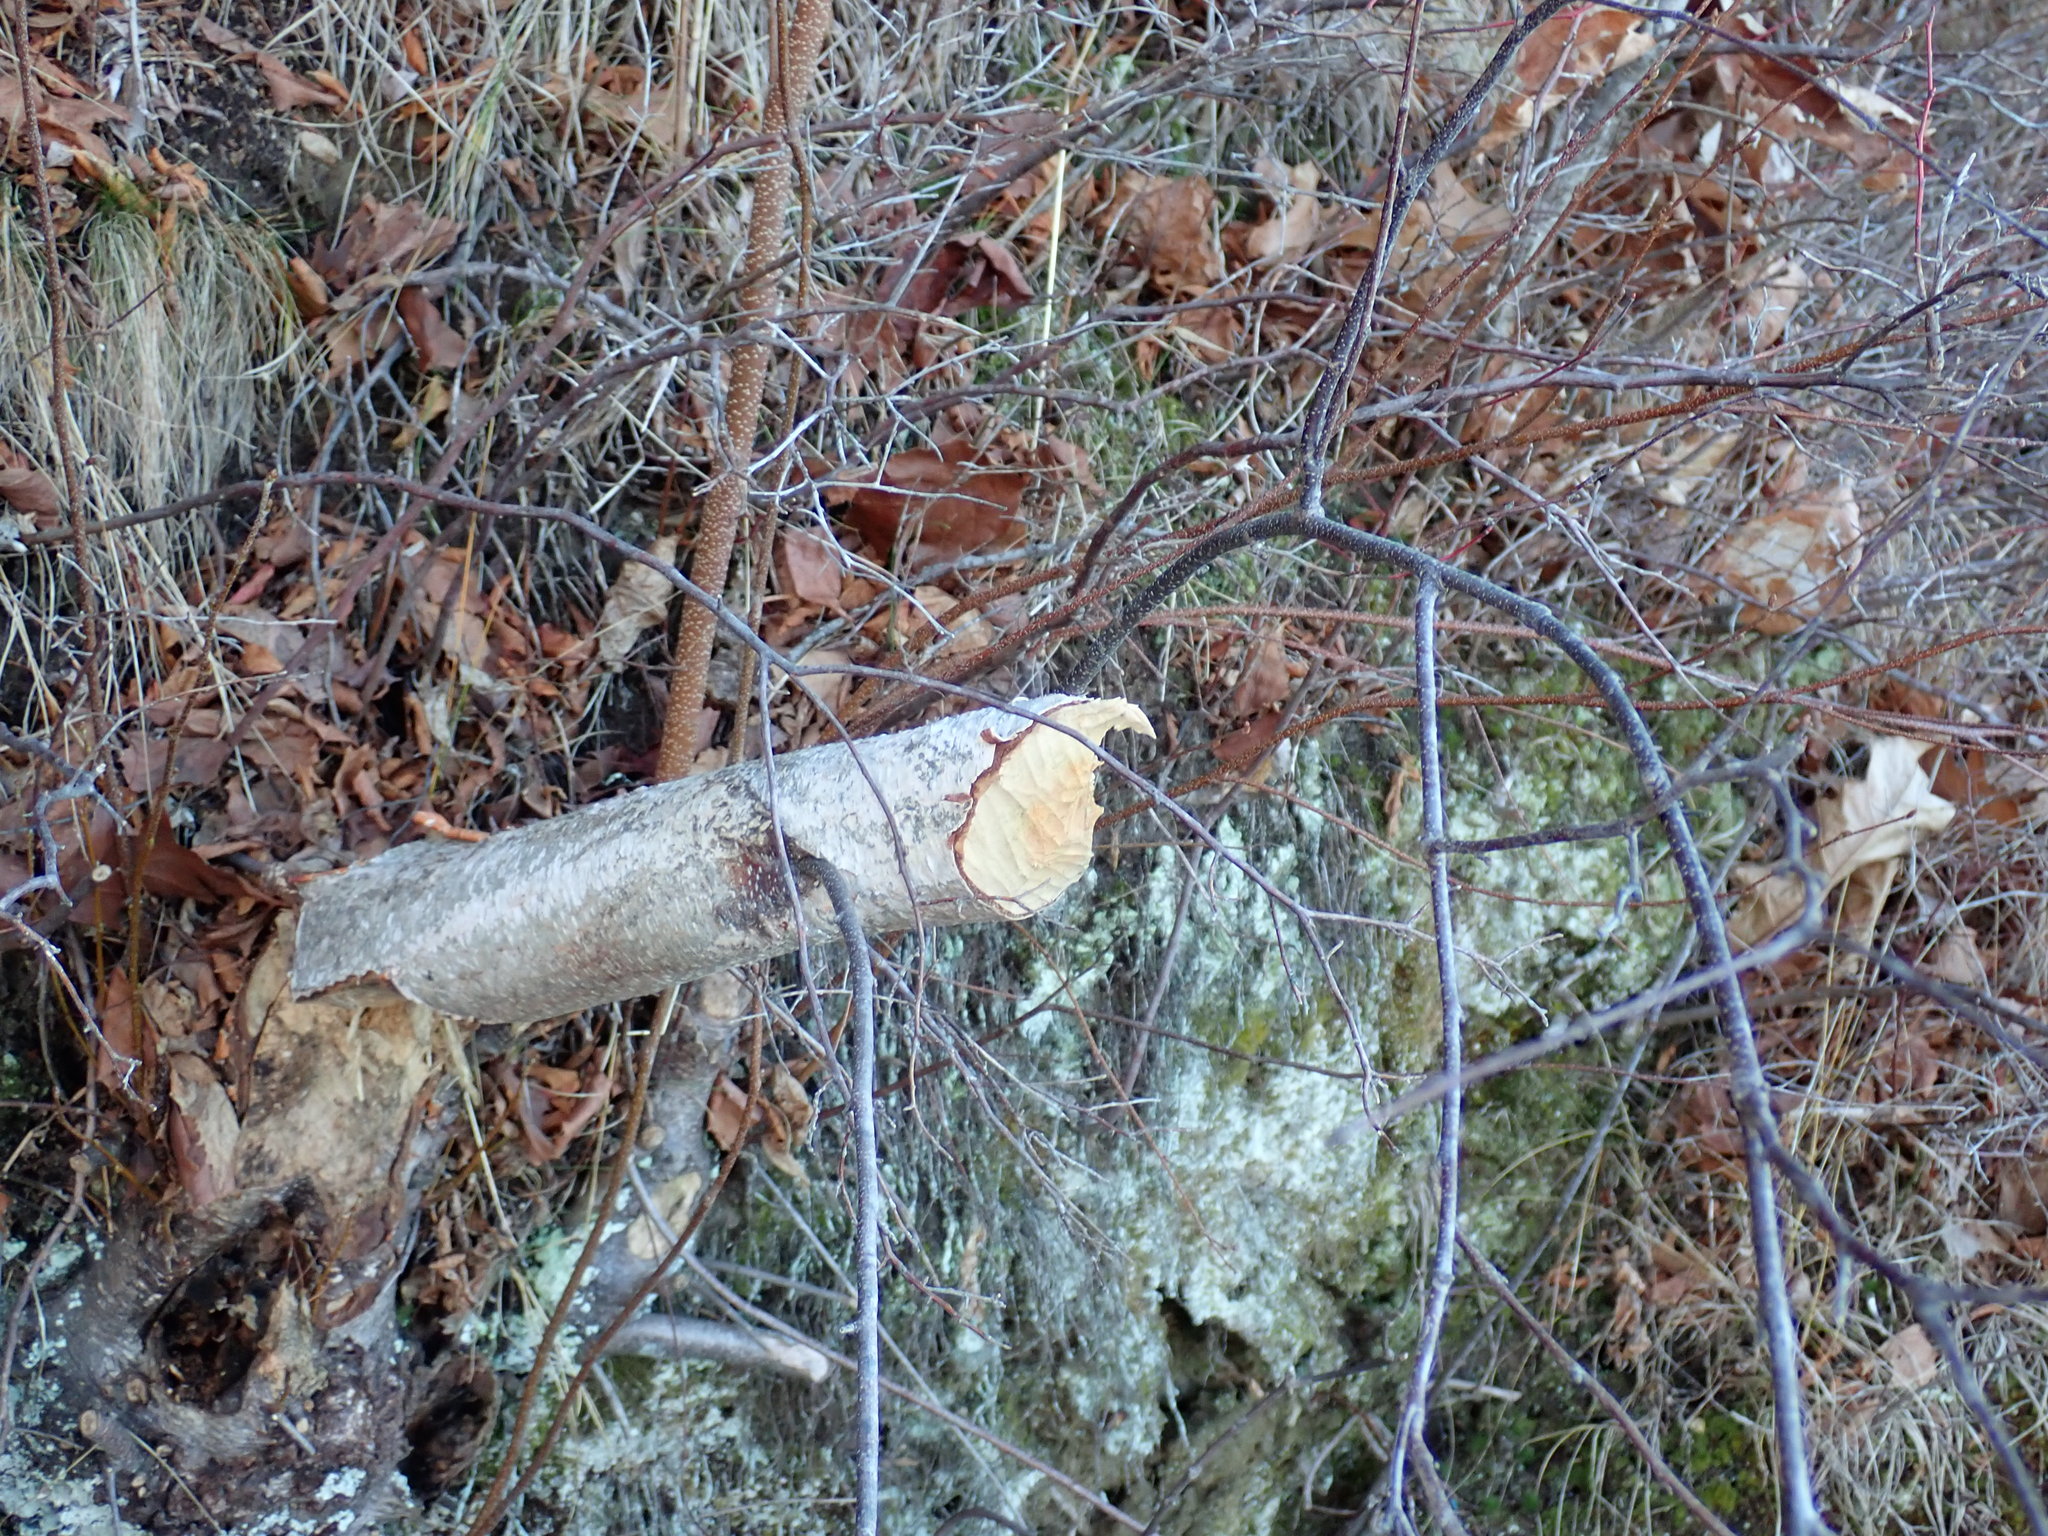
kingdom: Animalia
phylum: Chordata
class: Mammalia
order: Rodentia
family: Castoridae
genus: Castor
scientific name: Castor canadensis
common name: American beaver
